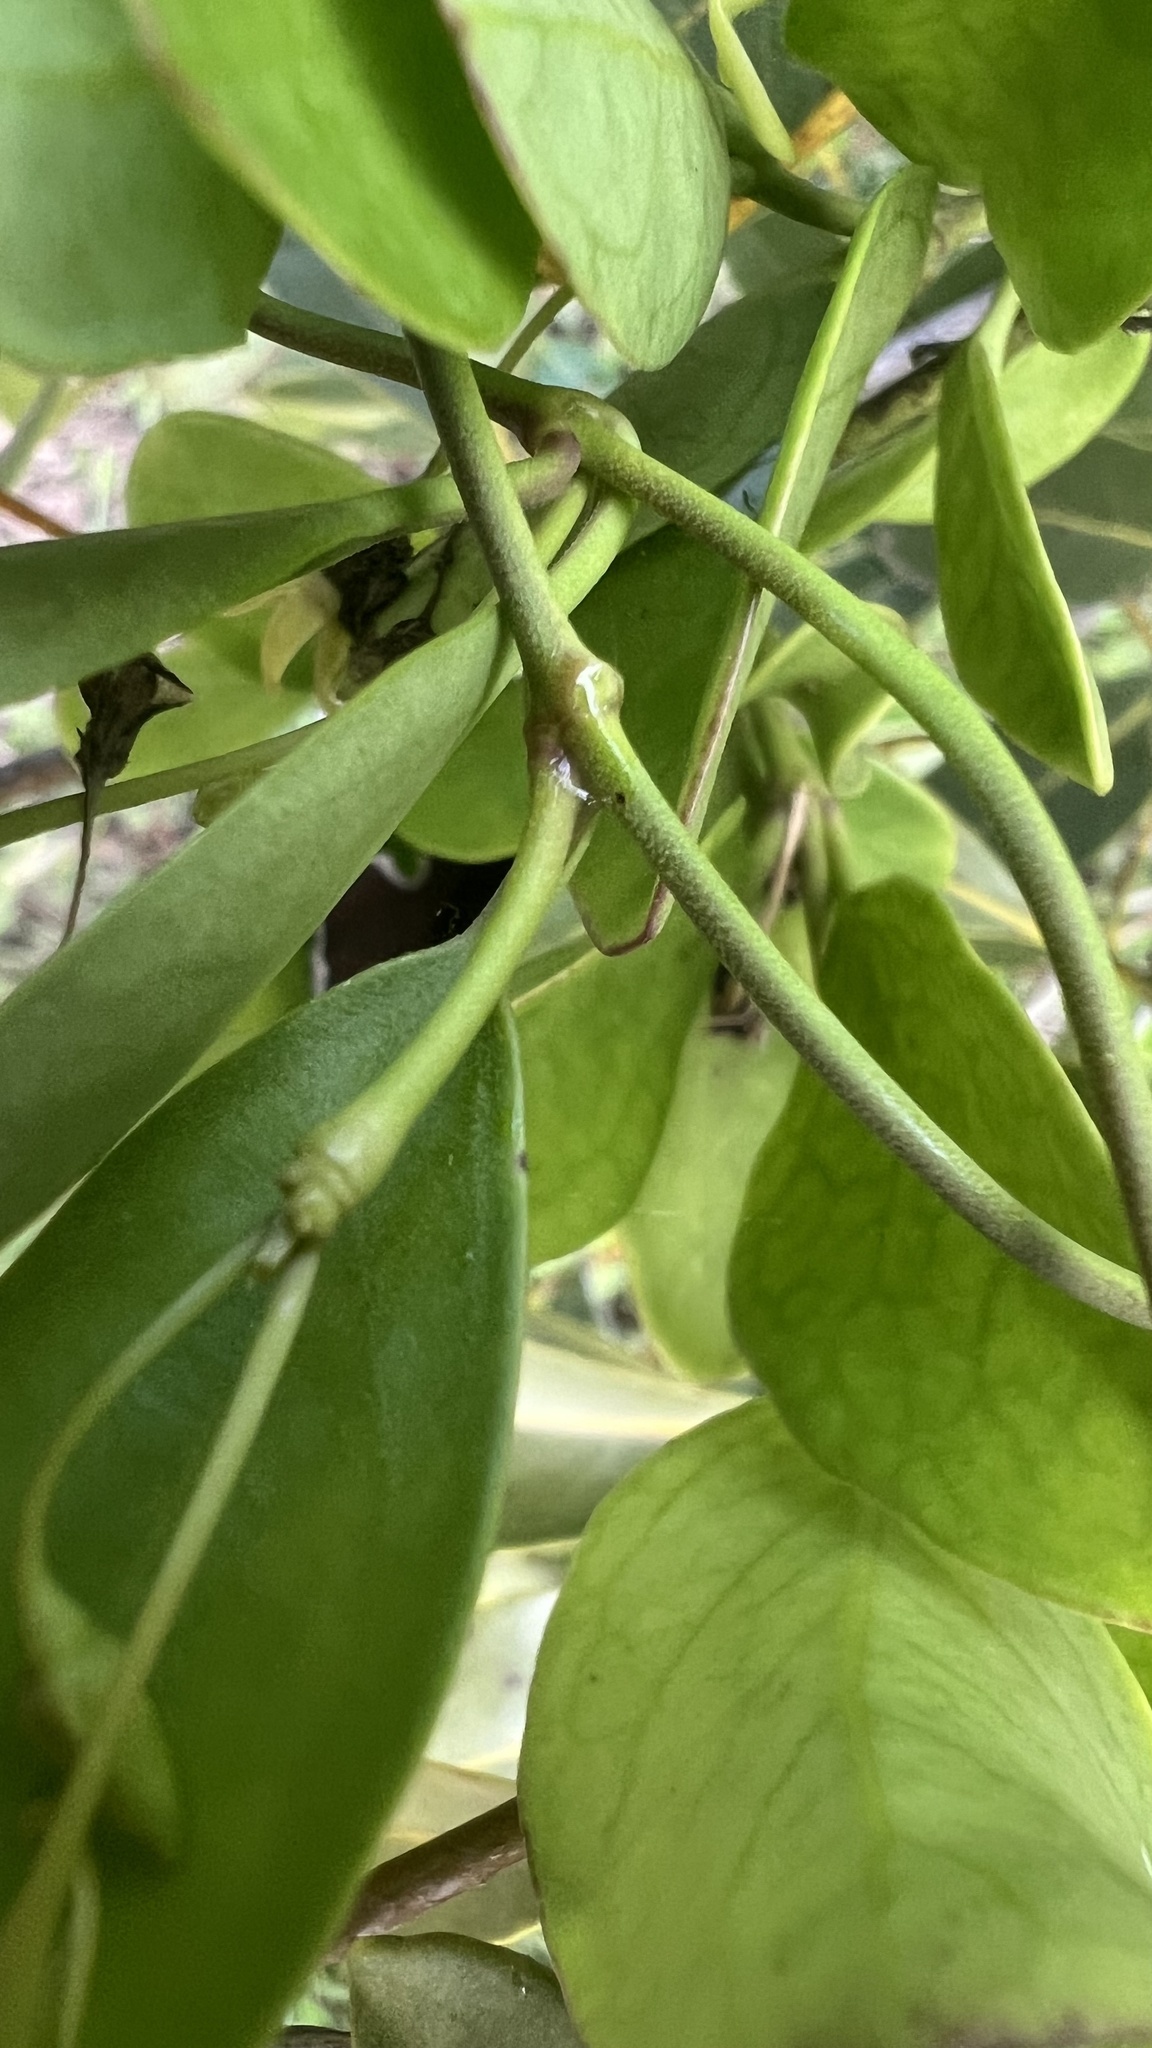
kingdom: Plantae
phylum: Tracheophyta
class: Magnoliopsida
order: Gentianales
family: Apocynaceae
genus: Vincetoxicum
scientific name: Vincetoxicum carnosum
